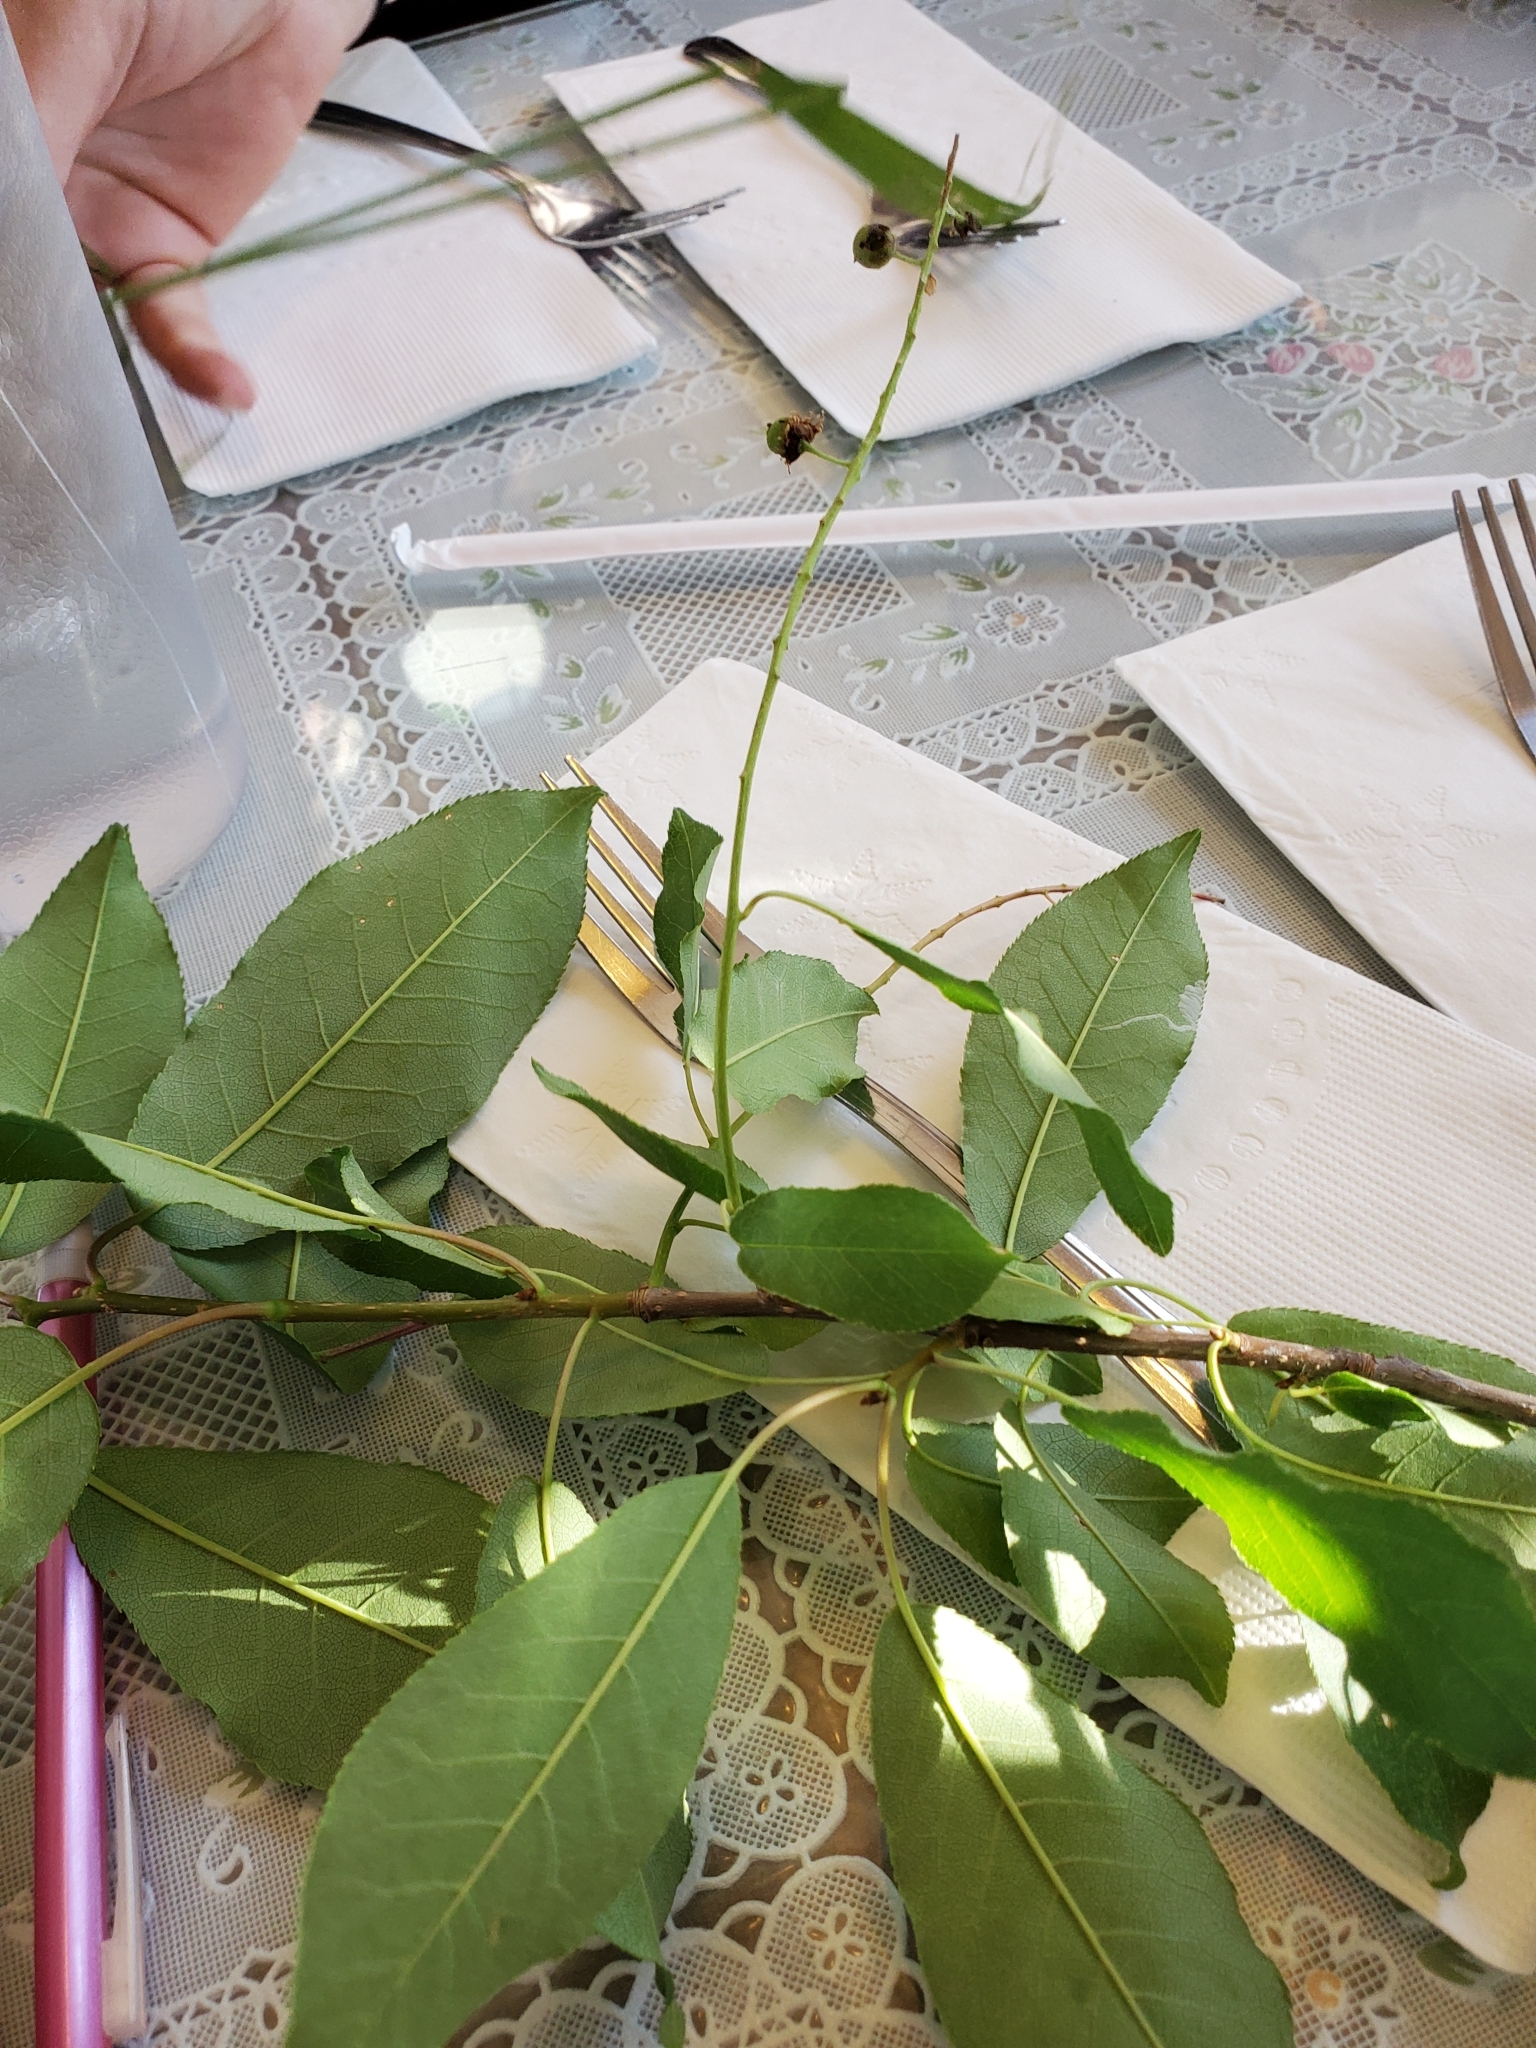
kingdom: Plantae
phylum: Tracheophyta
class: Magnoliopsida
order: Rosales
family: Rosaceae
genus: Prunus
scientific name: Prunus virginiana
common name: Chokecherry
